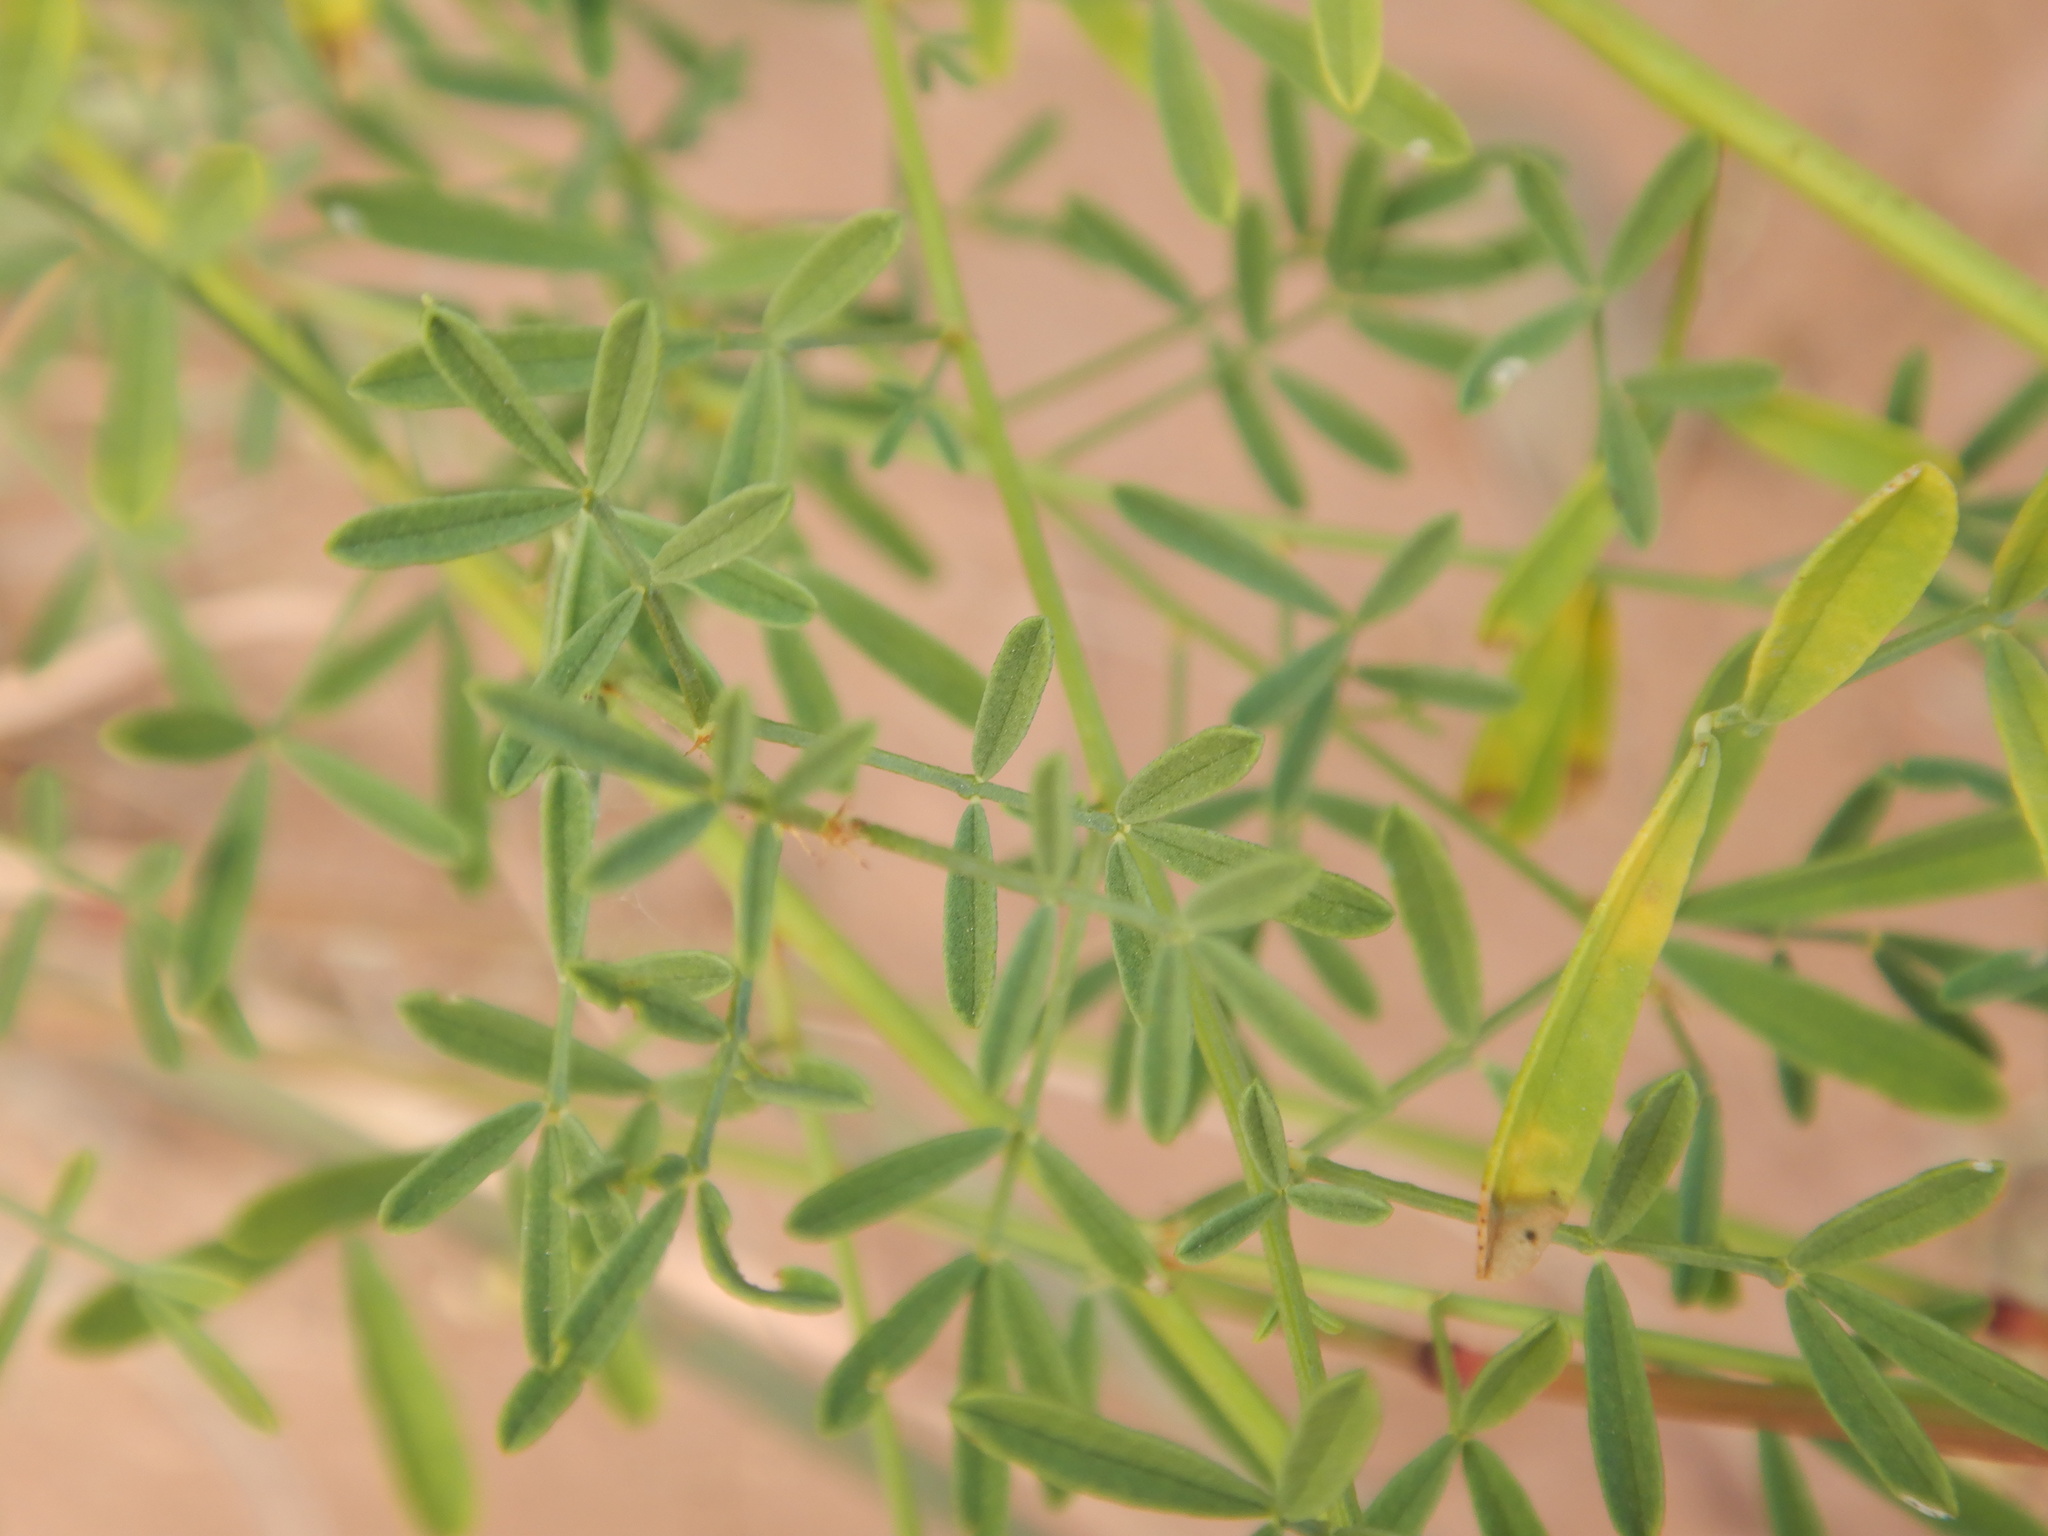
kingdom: Plantae
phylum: Tracheophyta
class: Magnoliopsida
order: Fabales
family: Fabaceae
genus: Dalea
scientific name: Dalea candida
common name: White prairie-clover
